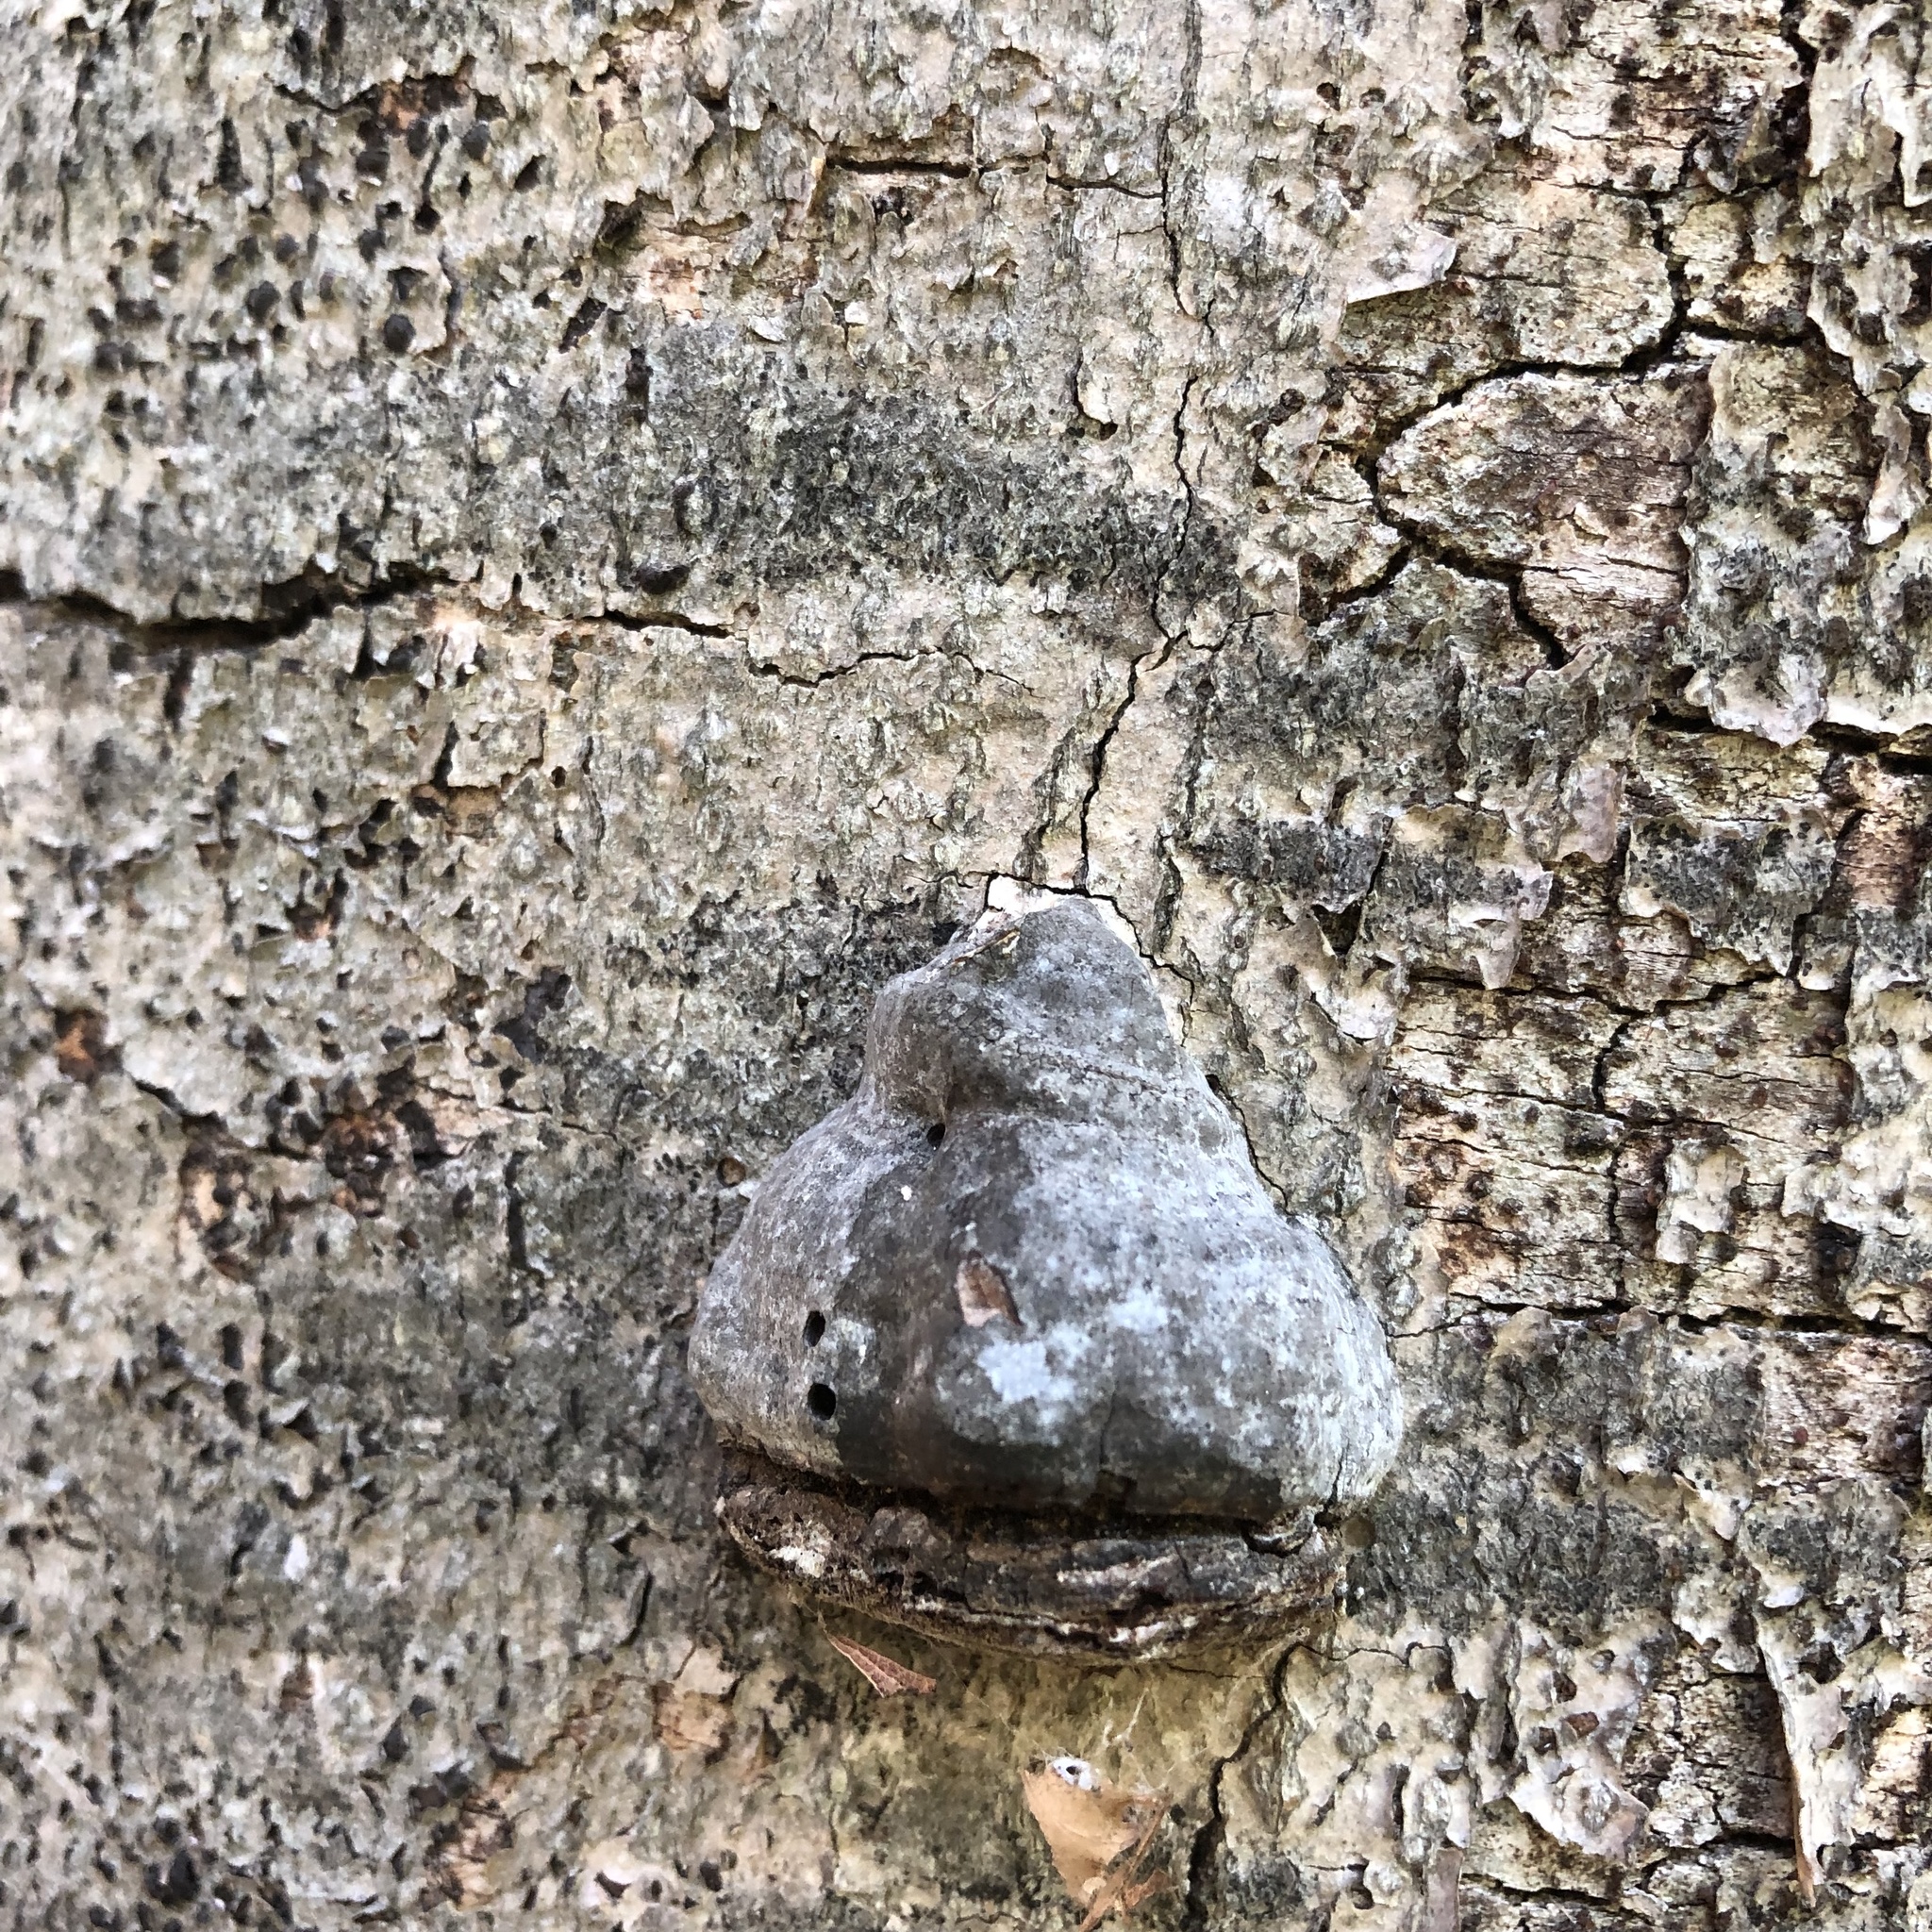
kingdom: Fungi
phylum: Basidiomycota
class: Agaricomycetes
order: Polyporales
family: Polyporaceae
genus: Fomes
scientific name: Fomes fomentarius
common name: Hoof fungus
